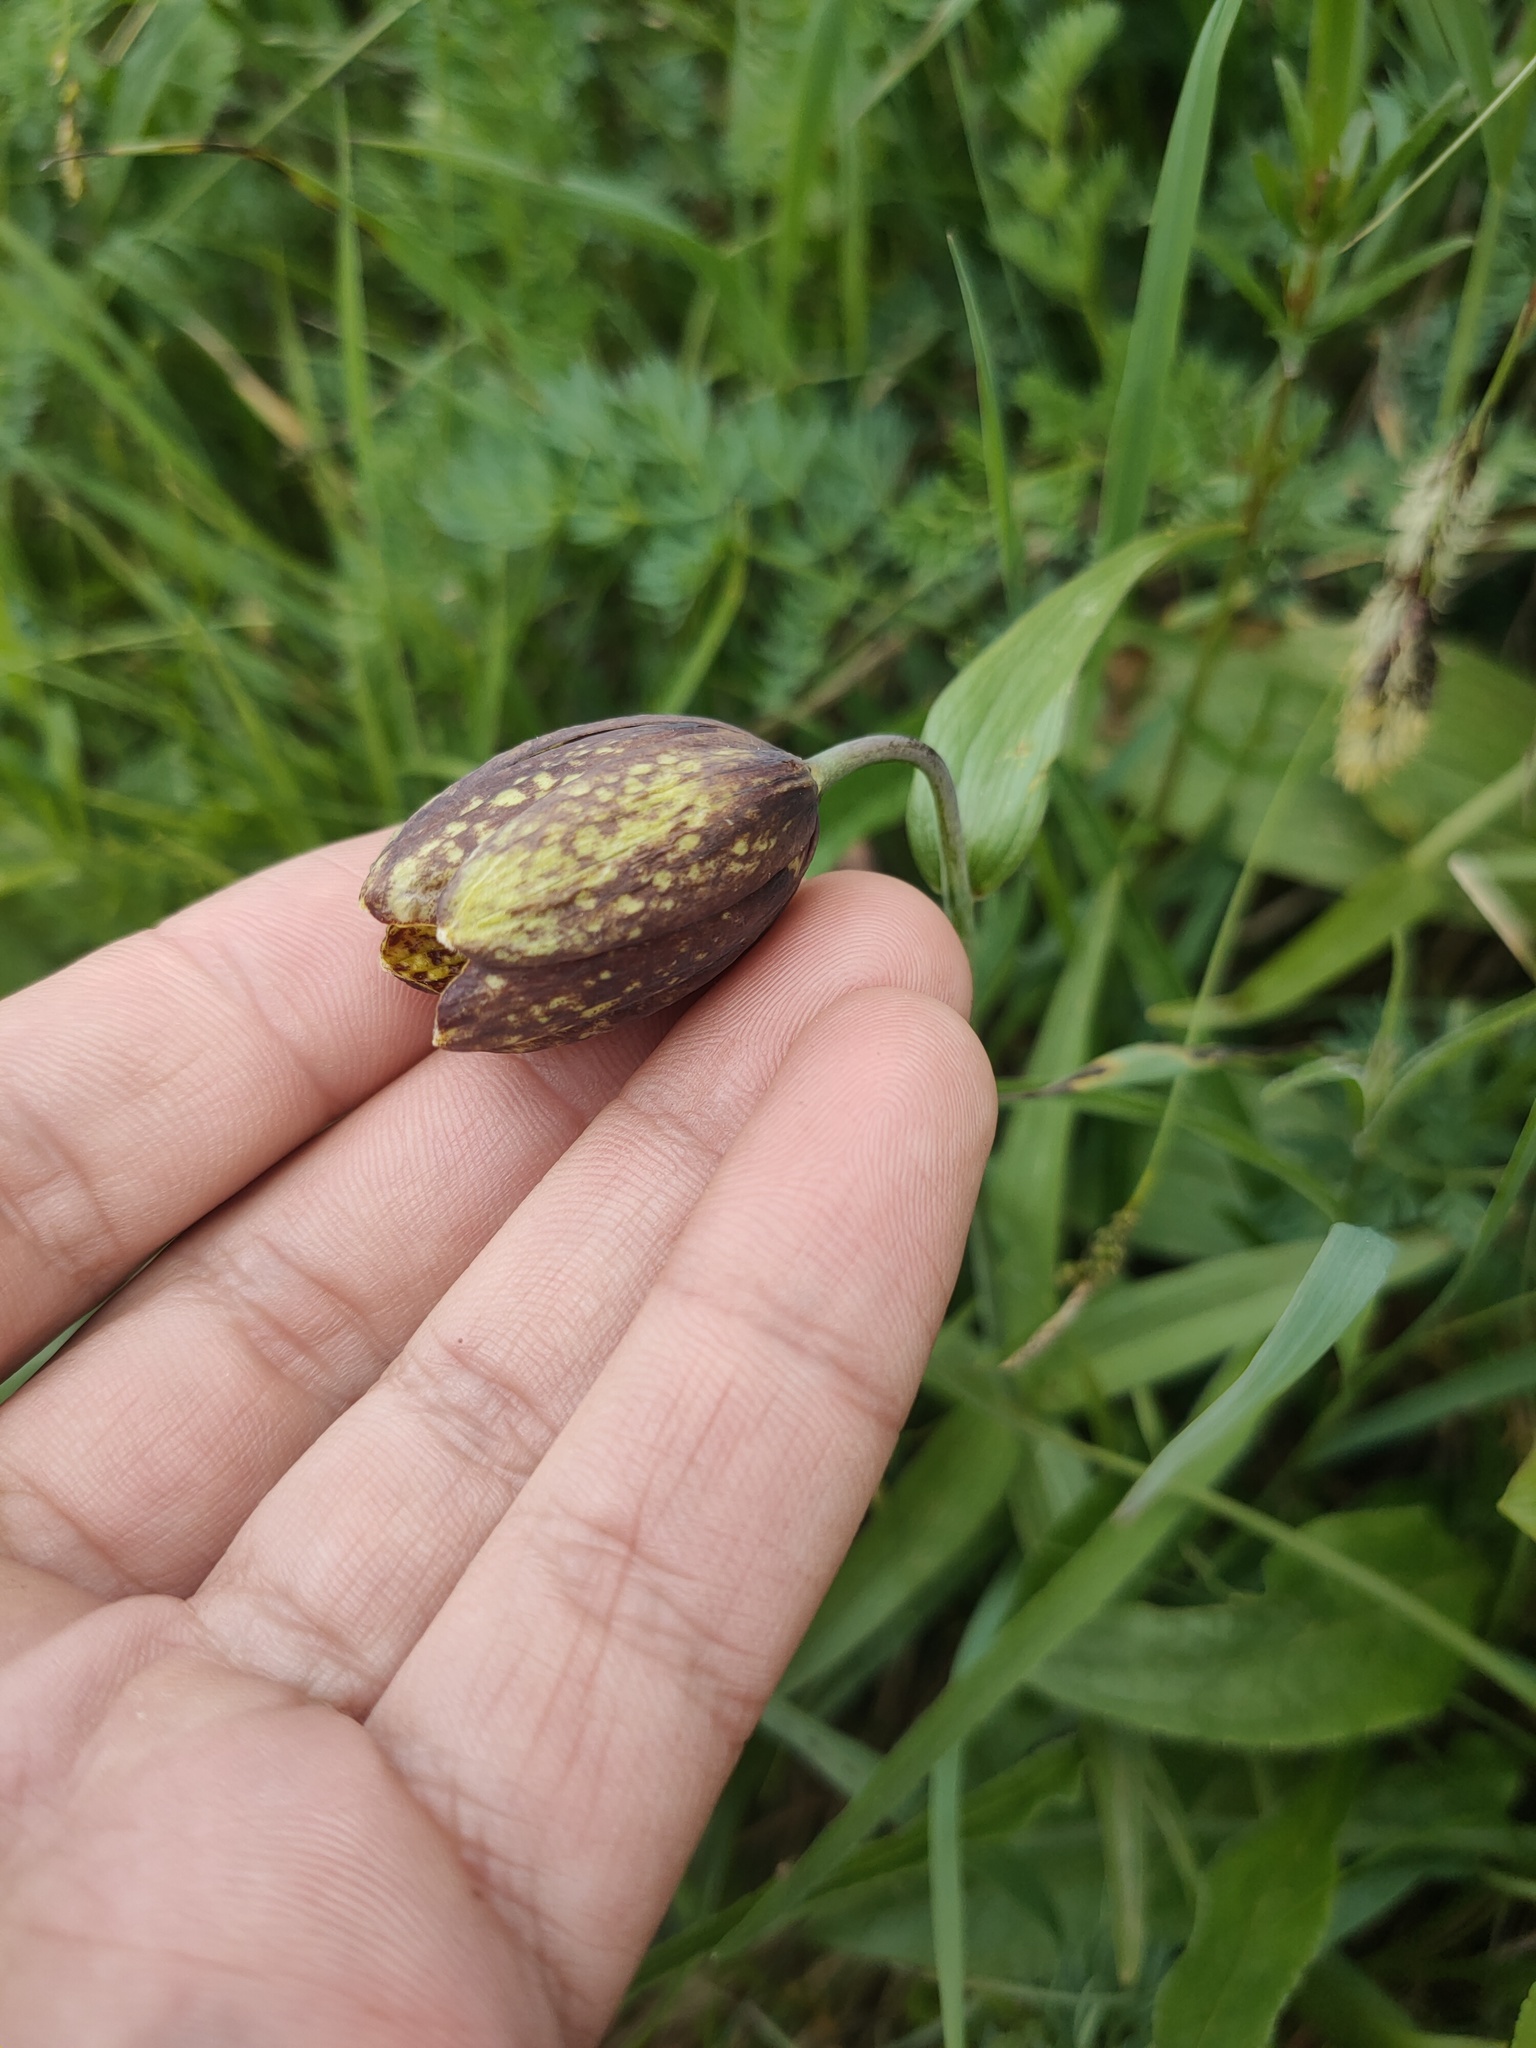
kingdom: Plantae
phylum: Tracheophyta
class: Liliopsida
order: Liliales
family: Liliaceae
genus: Fritillaria
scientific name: Fritillaria dagana
